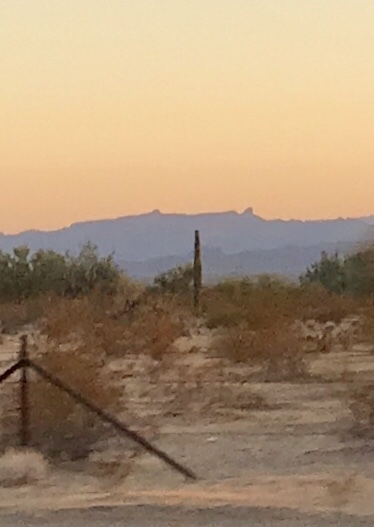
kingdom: Plantae
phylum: Tracheophyta
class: Magnoliopsida
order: Caryophyllales
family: Cactaceae
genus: Carnegiea
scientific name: Carnegiea gigantea
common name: Saguaro
